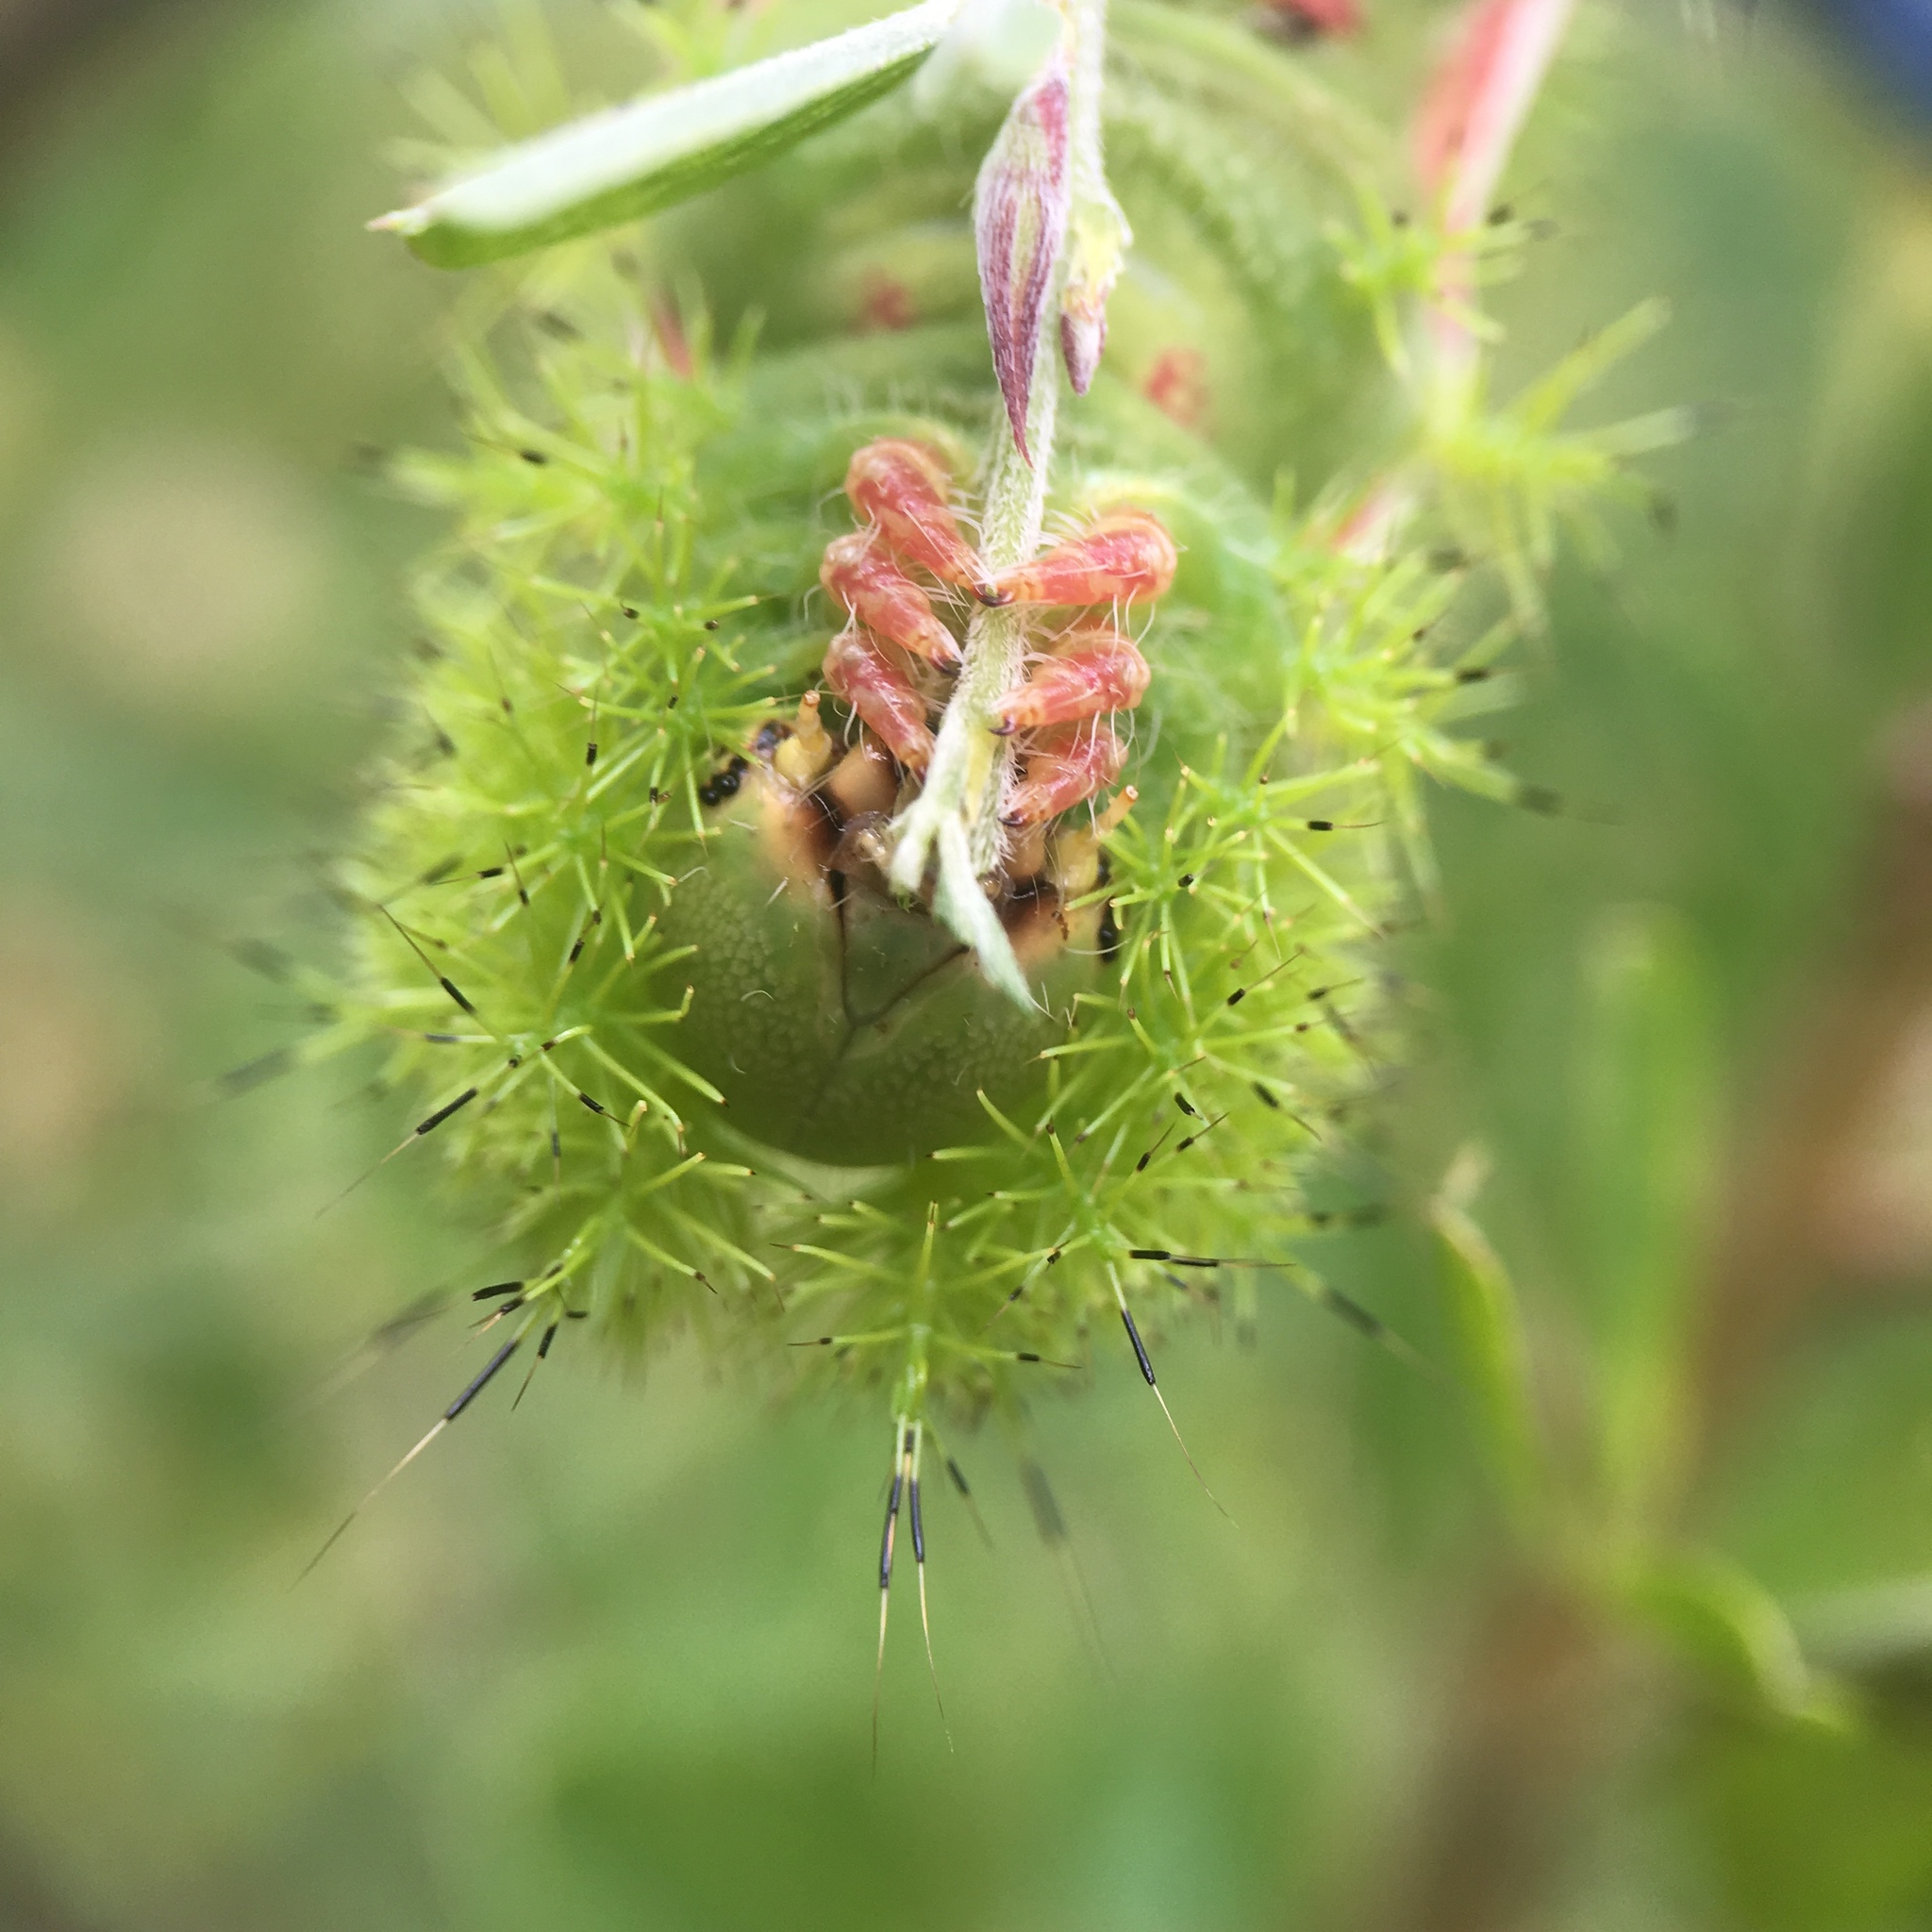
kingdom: Animalia
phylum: Arthropoda
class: Insecta
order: Lepidoptera
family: Saturniidae
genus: Automeris
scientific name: Automeris io
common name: Io moth
